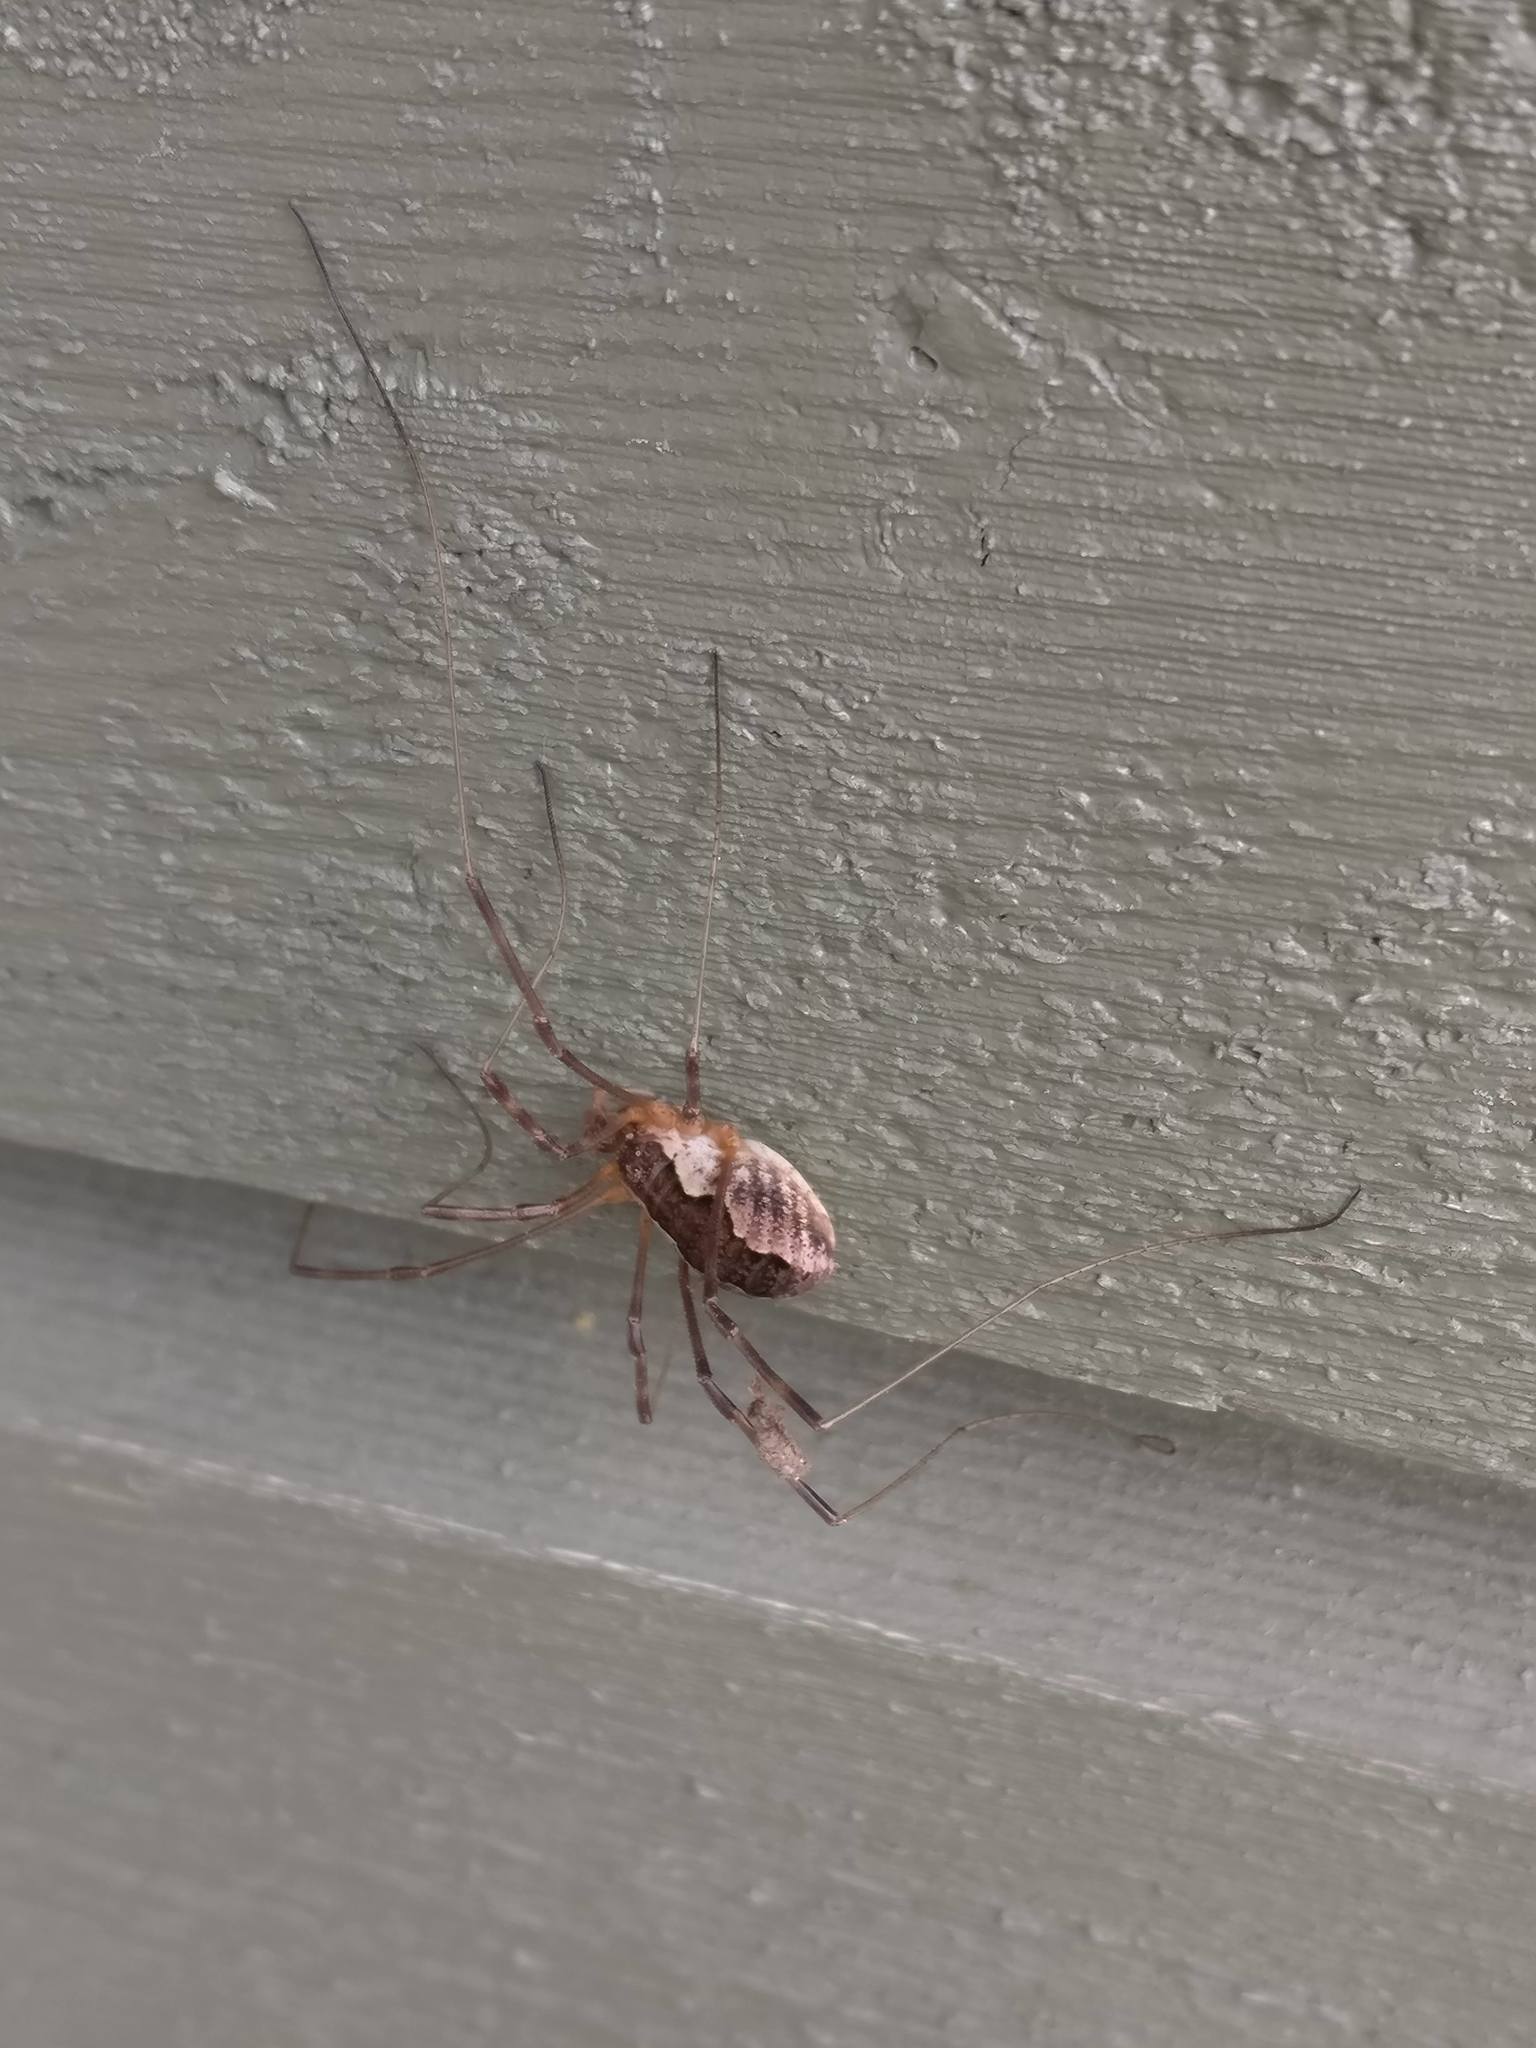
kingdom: Animalia
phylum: Arthropoda
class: Arachnida
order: Opiliones
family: Phalangiidae
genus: Mitopus
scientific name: Mitopus morio
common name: Saddleback harvestman
